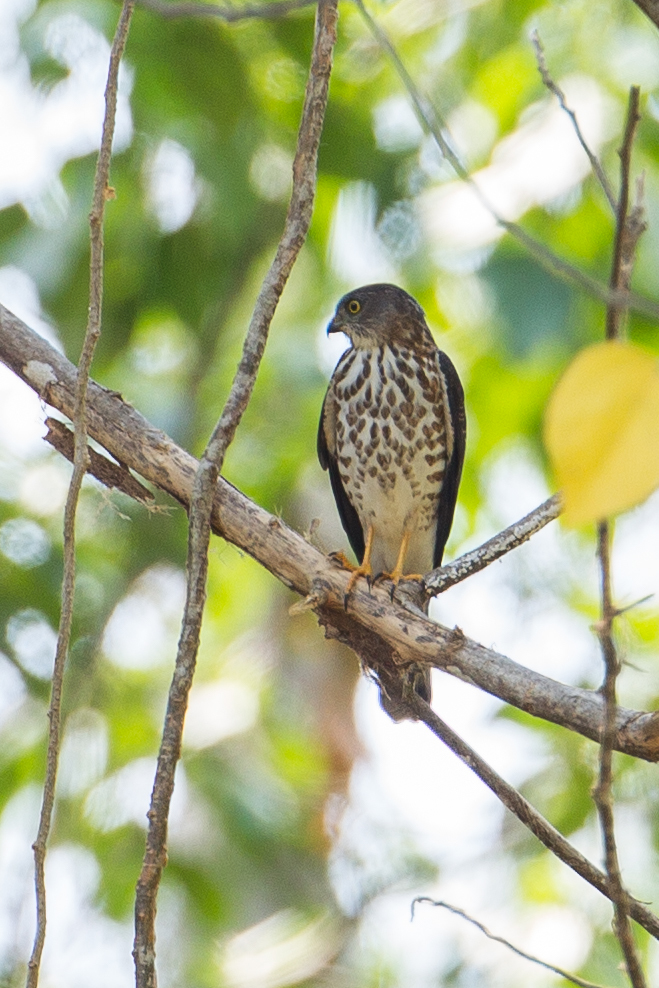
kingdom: Animalia
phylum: Chordata
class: Aves
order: Accipitriformes
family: Accipitridae
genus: Accipiter
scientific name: Accipiter soloensis
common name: Chinese sparrowhawk
